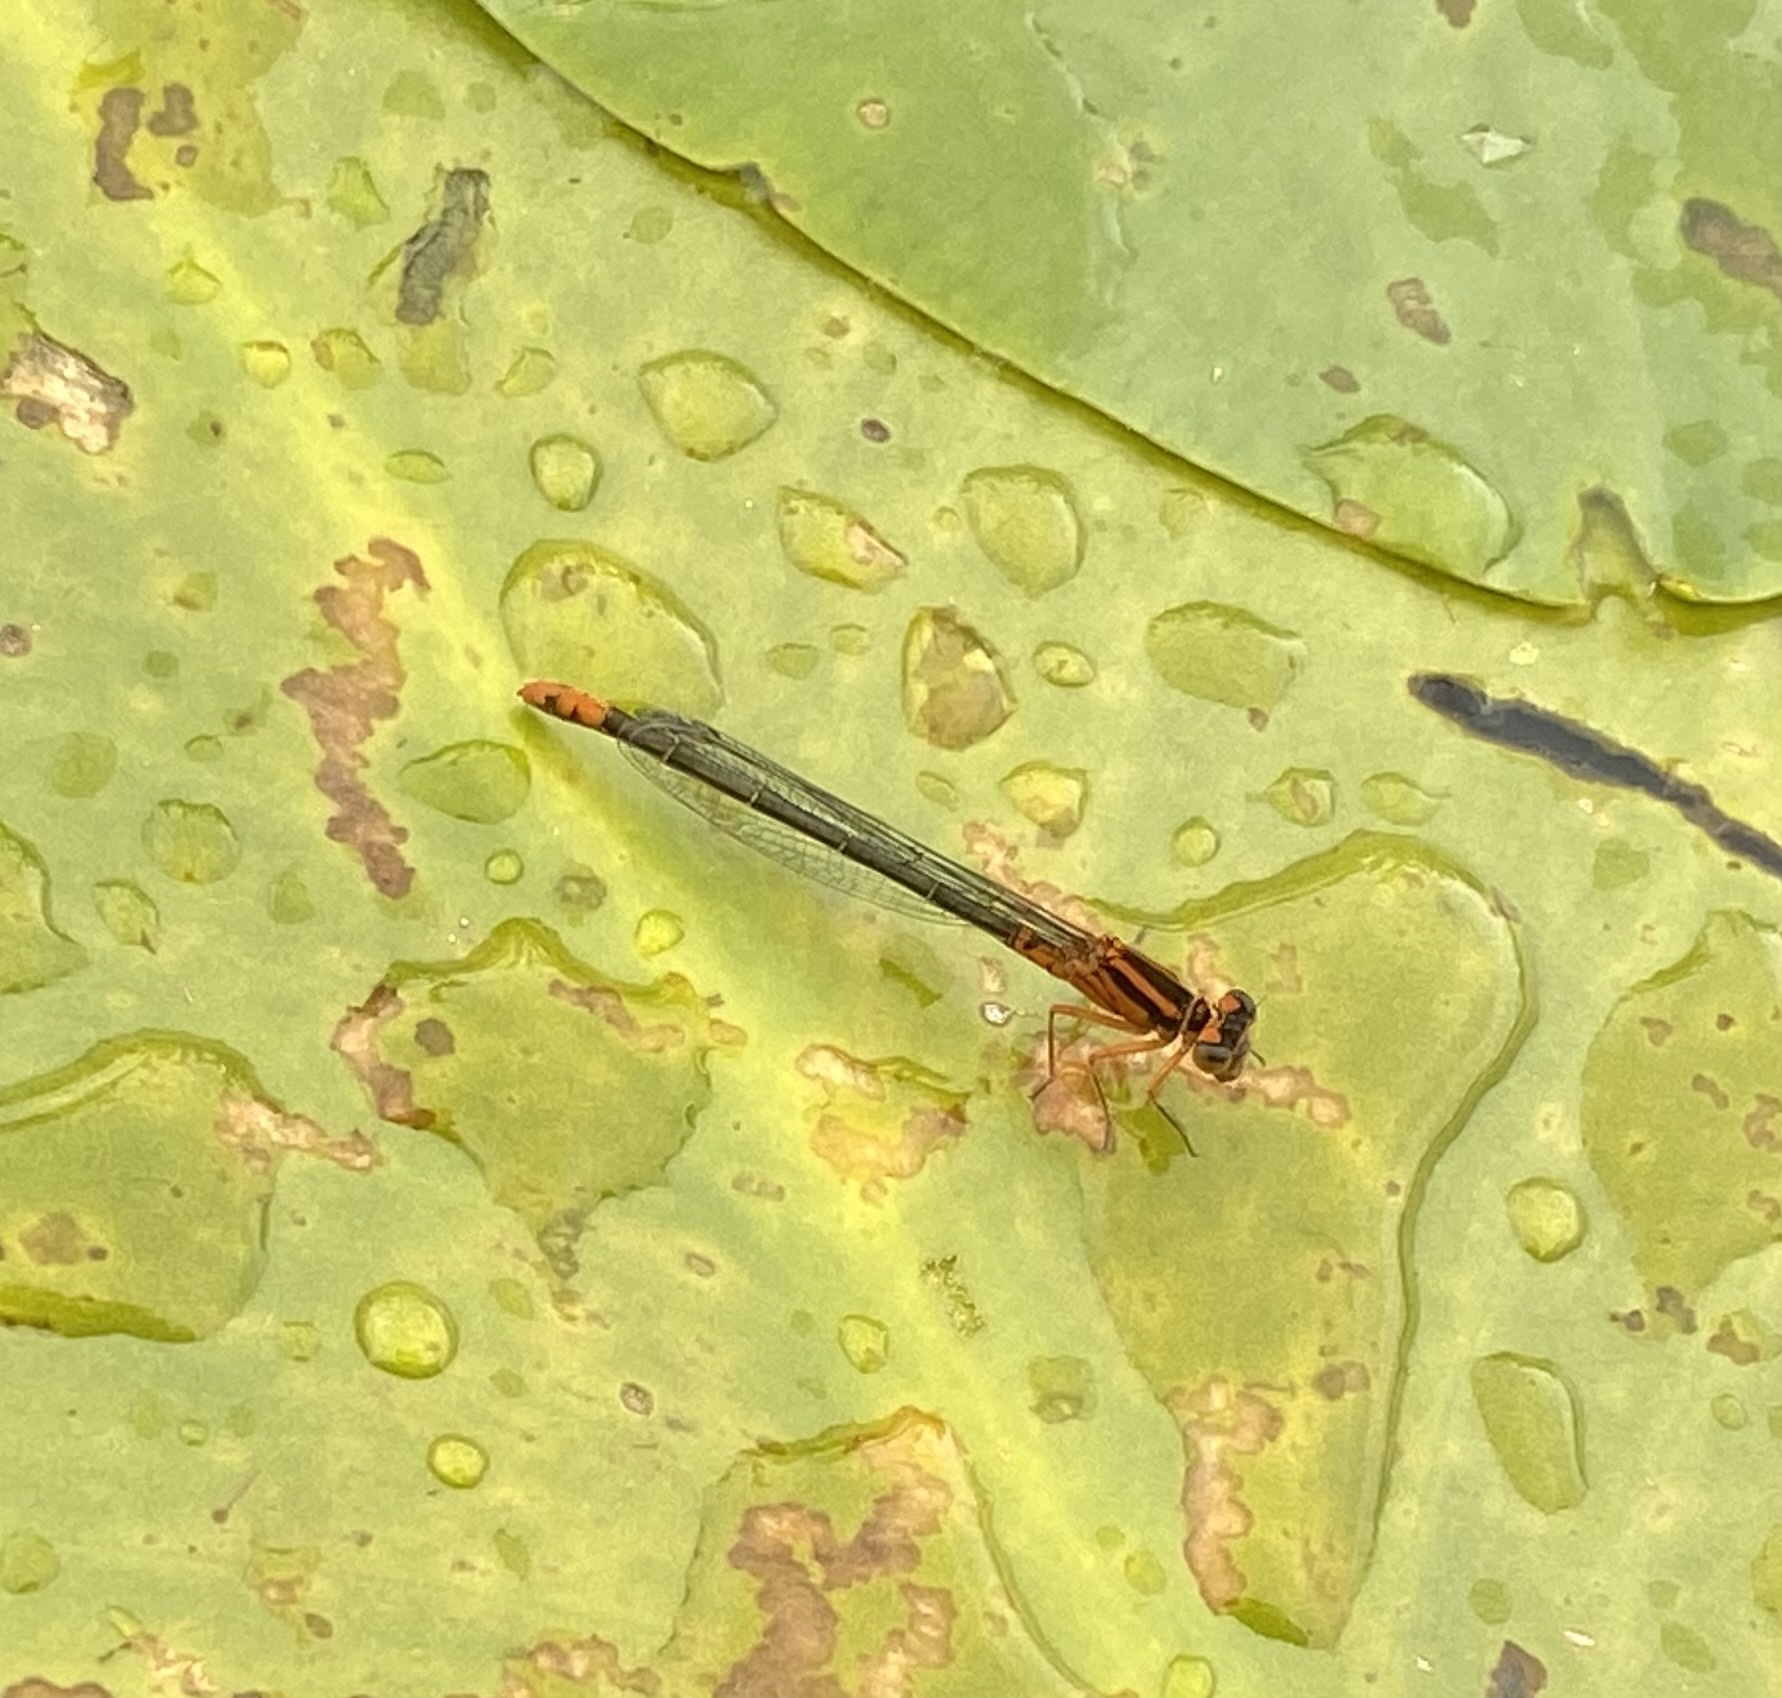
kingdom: Animalia
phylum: Arthropoda
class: Insecta
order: Odonata
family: Coenagrionidae
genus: Ischnura
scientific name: Ischnura kellicotti
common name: Lilypad forktail
